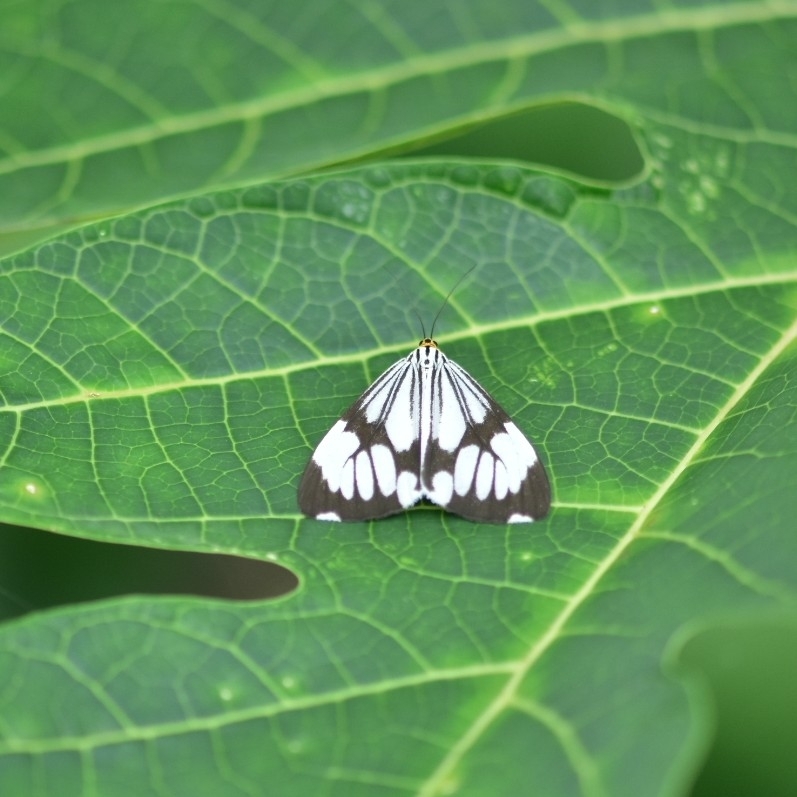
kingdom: Animalia
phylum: Arthropoda
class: Insecta
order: Lepidoptera
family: Erebidae
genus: Nyctemera
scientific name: Nyctemera coleta
